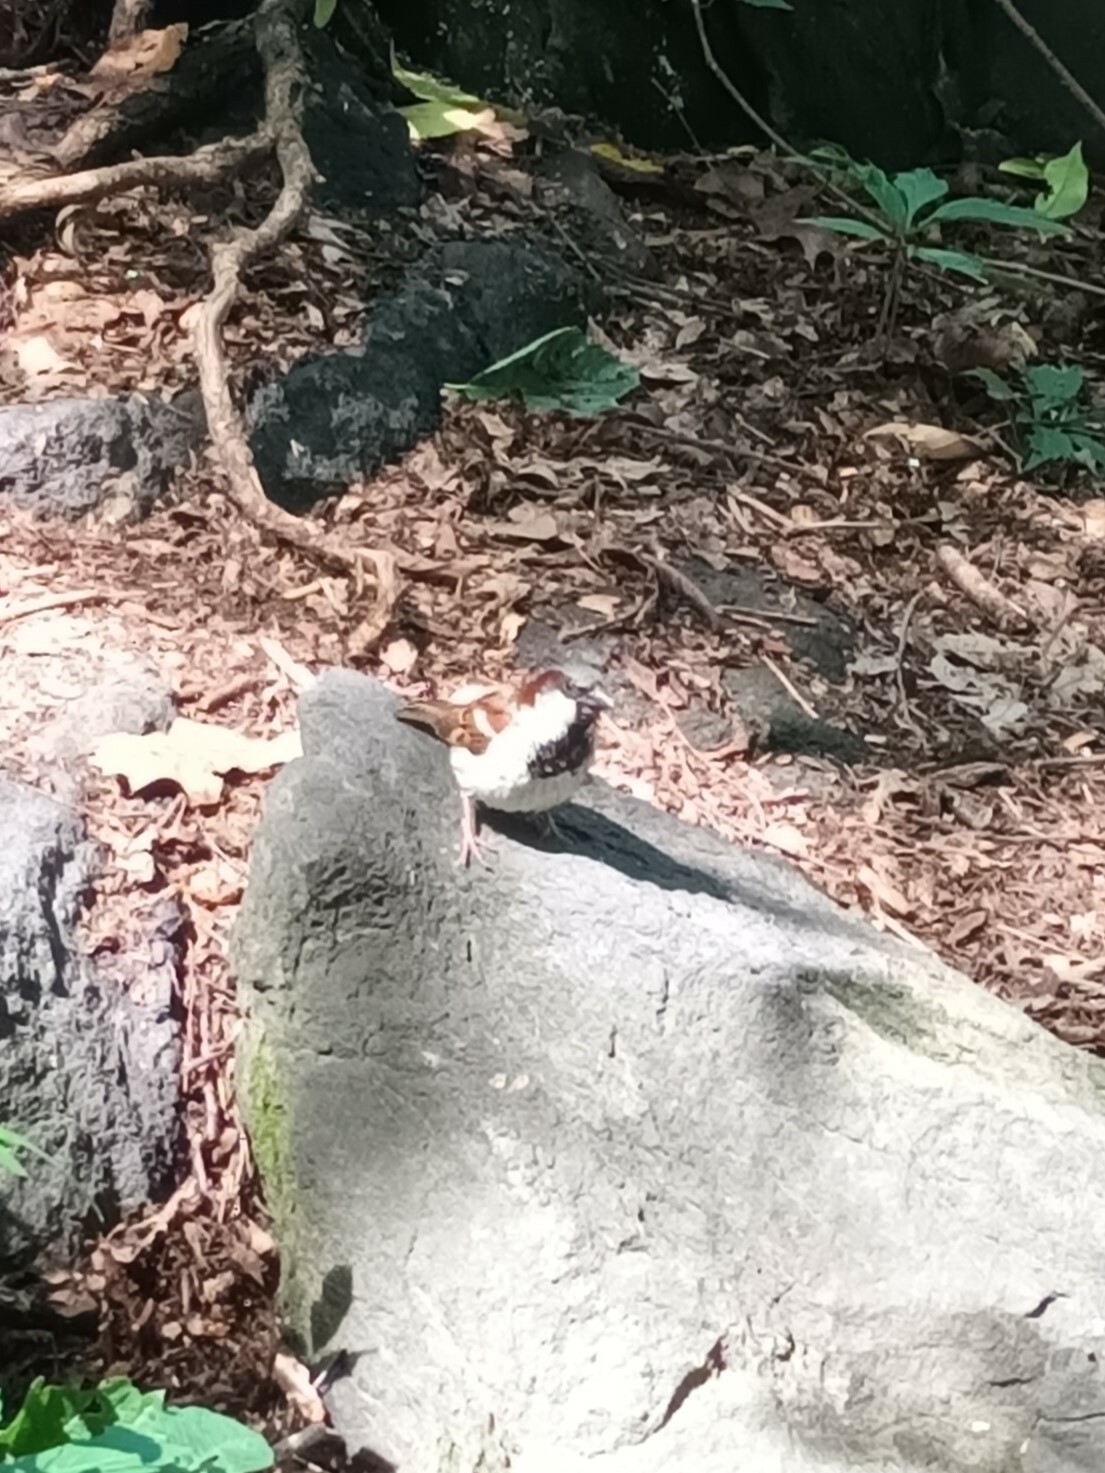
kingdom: Animalia
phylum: Chordata
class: Aves
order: Passeriformes
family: Passeridae
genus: Passer
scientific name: Passer domesticus
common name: House sparrow
